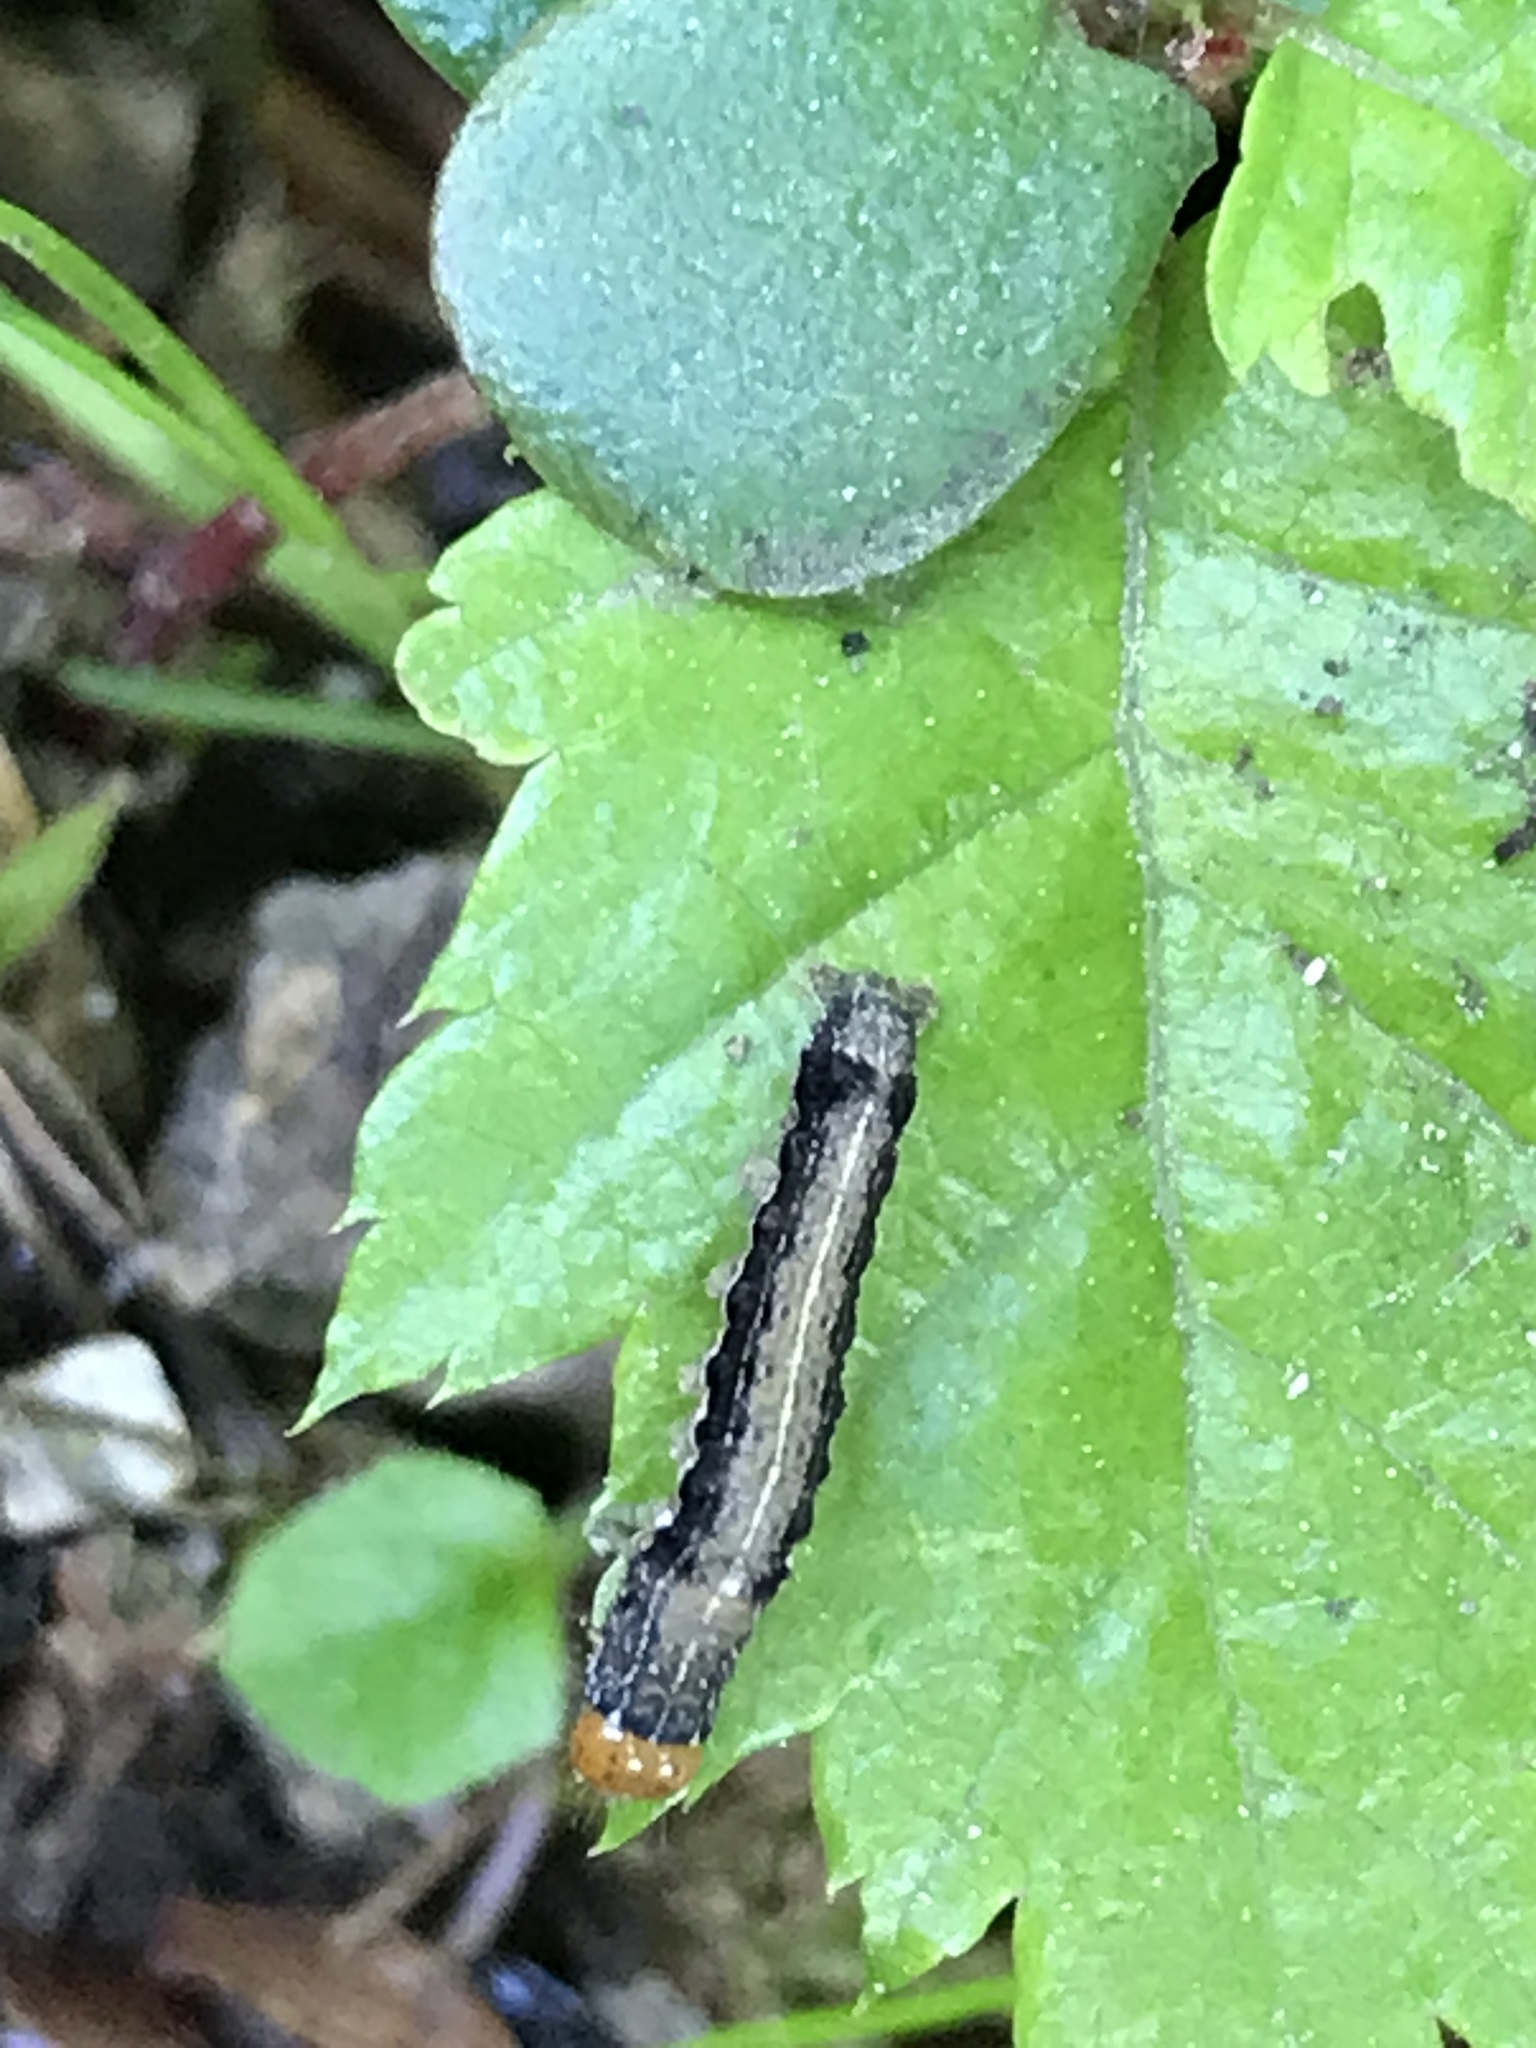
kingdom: Animalia
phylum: Arthropoda
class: Insecta
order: Lepidoptera
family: Noctuidae
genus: Anorthoa
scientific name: Anorthoa munda
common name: Twin-spotted quaker
